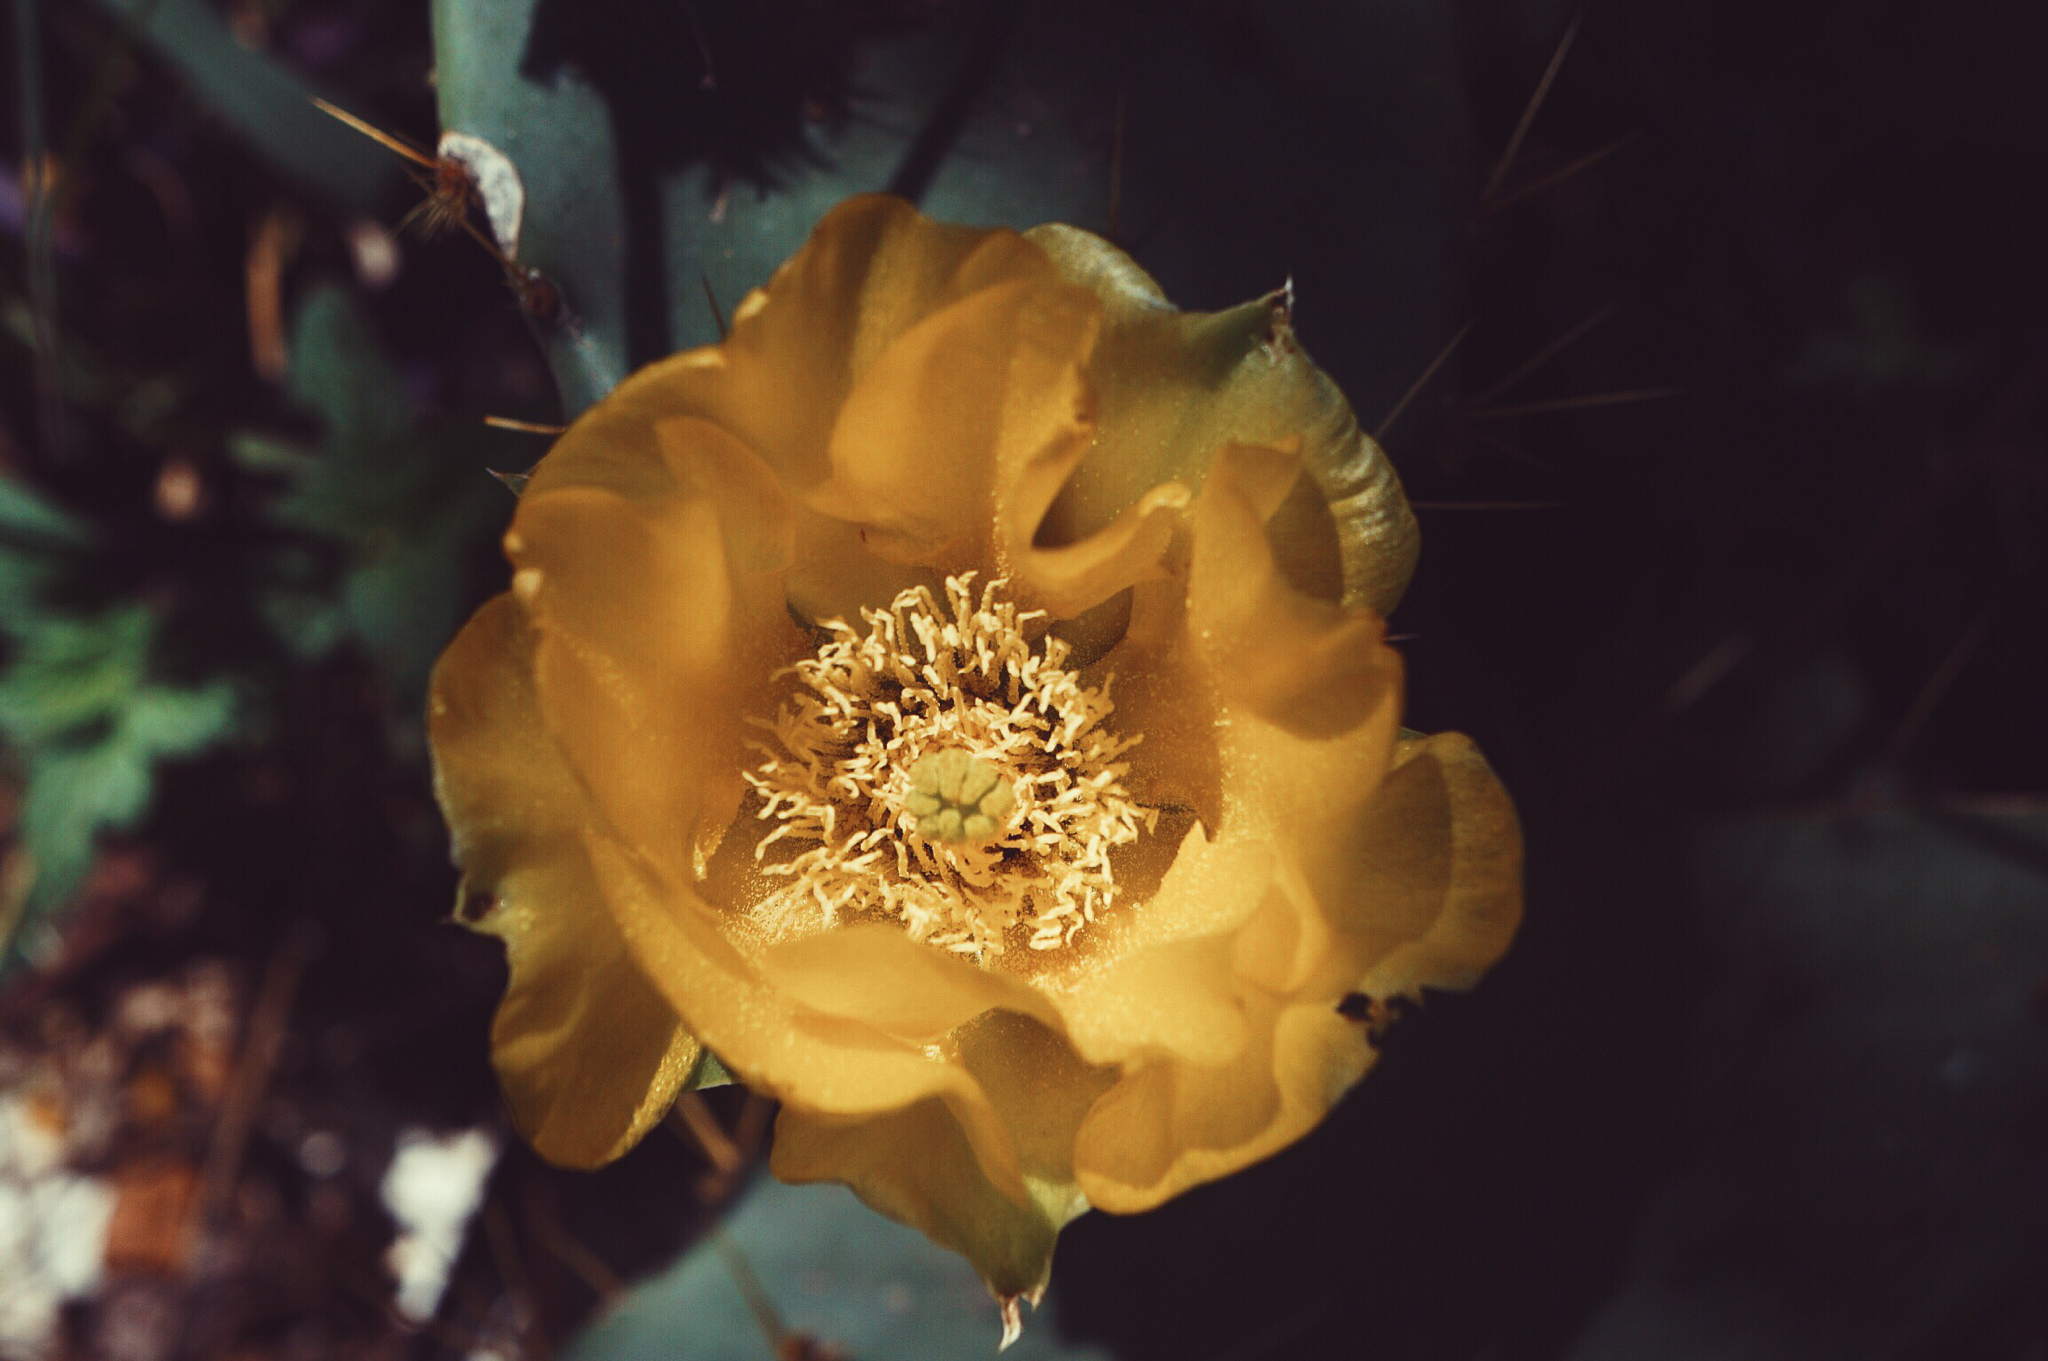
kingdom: Plantae
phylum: Tracheophyta
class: Magnoliopsida
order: Caryophyllales
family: Cactaceae
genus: Opuntia
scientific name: Opuntia engelmannii
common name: Cactus-apple
